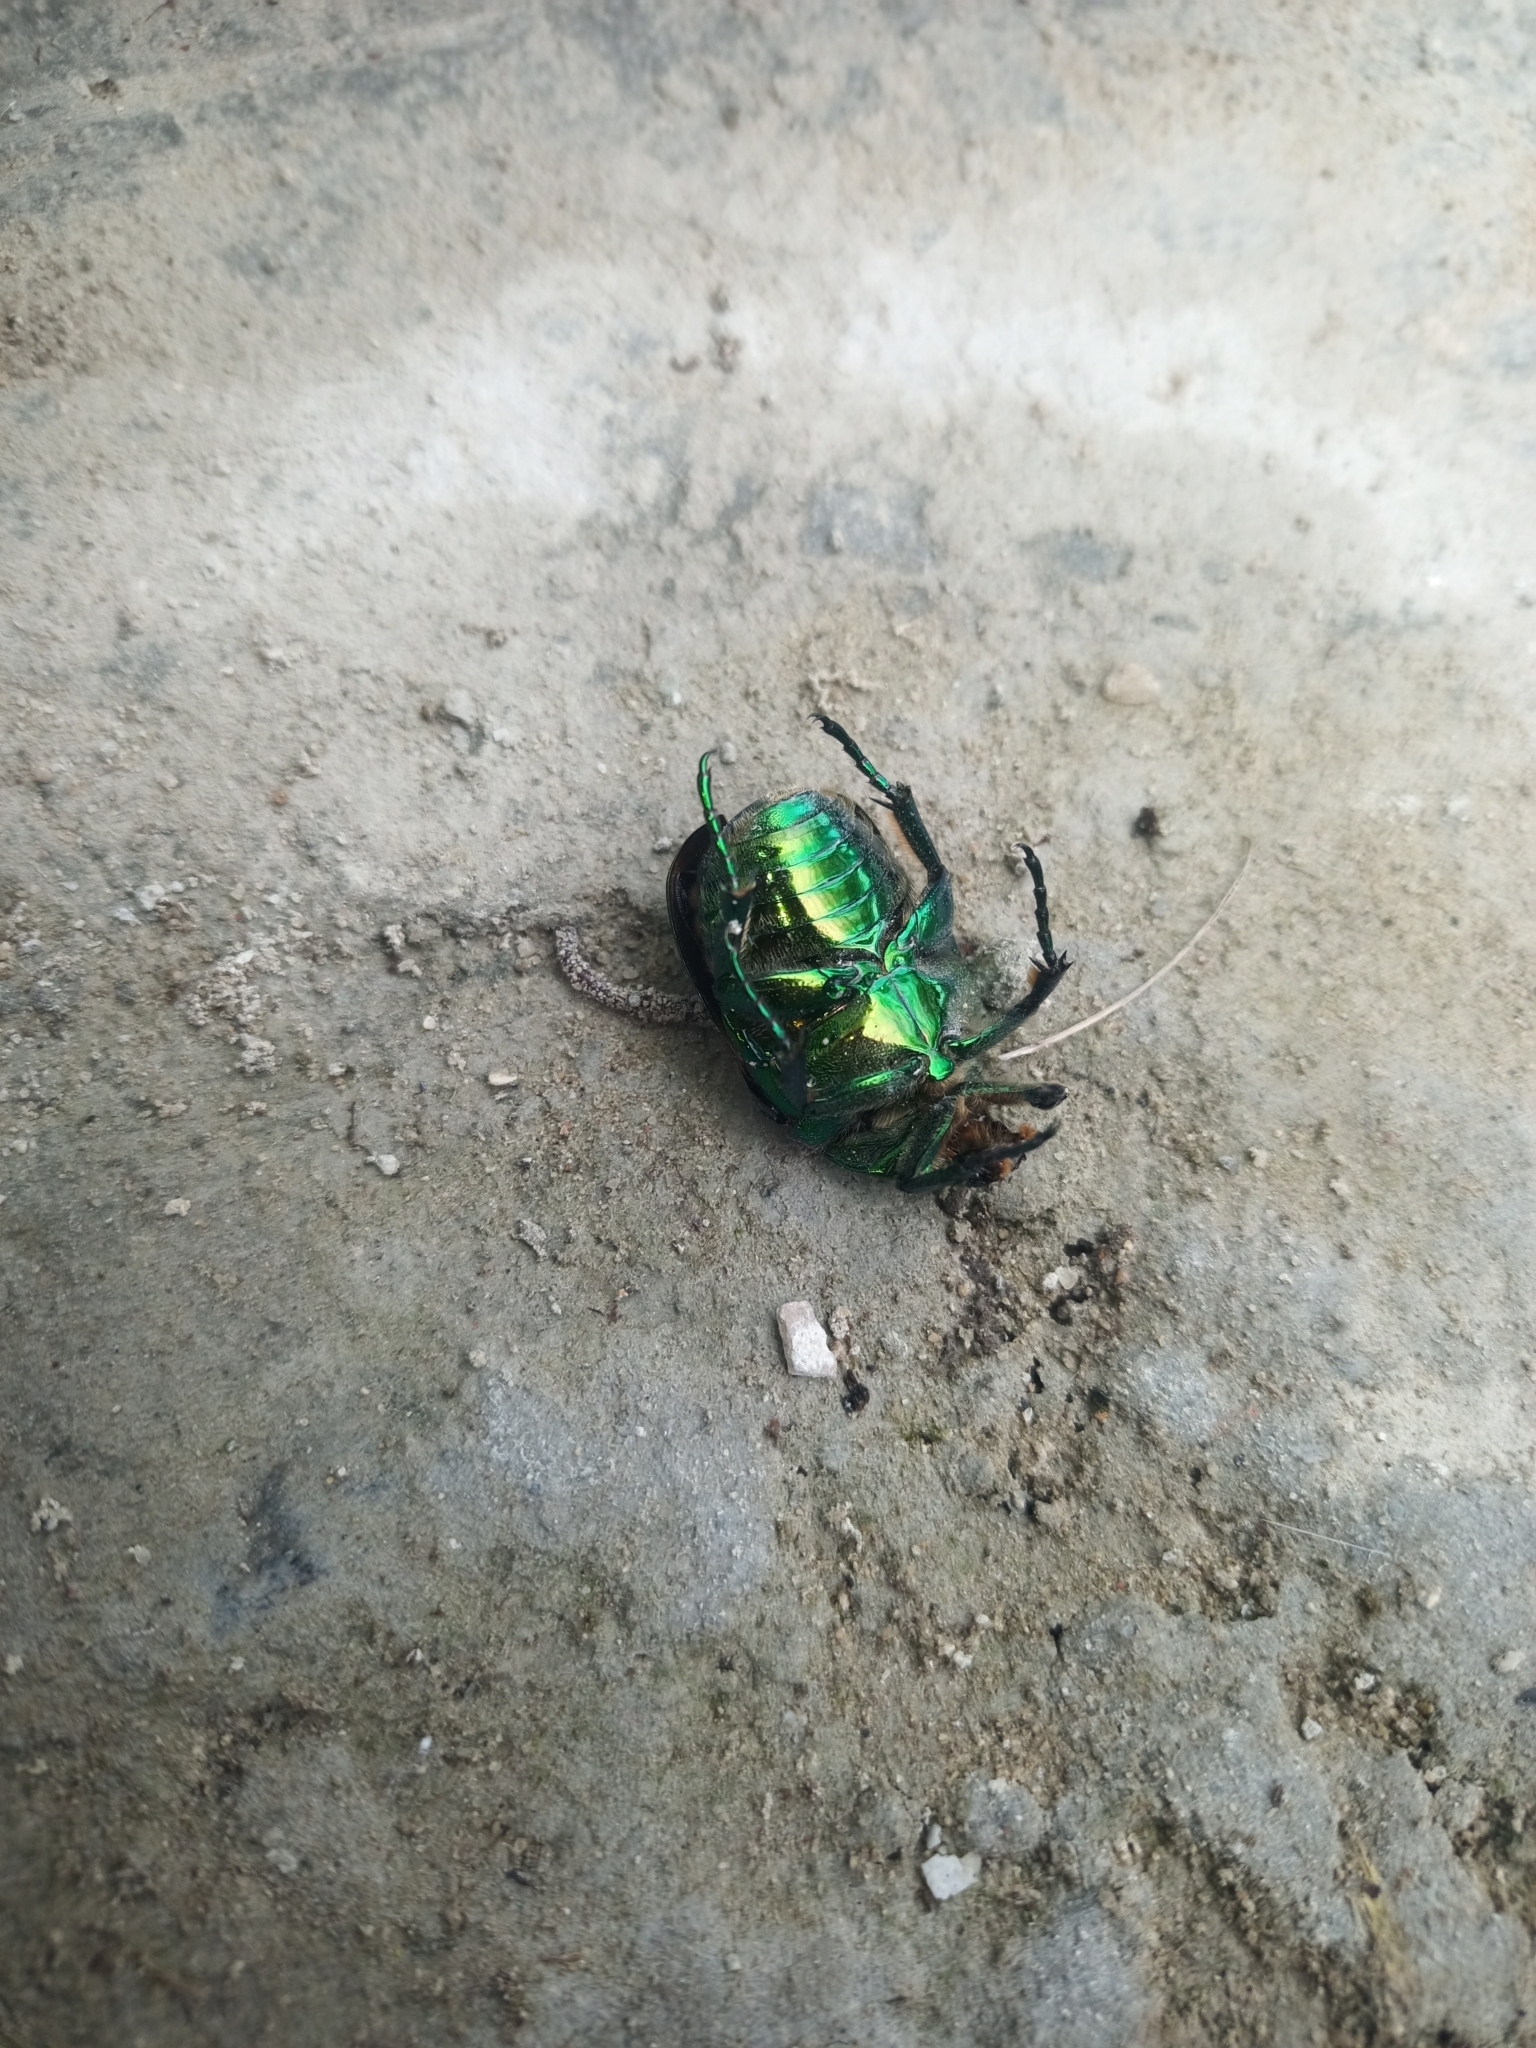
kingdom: Animalia
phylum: Arthropoda
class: Insecta
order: Coleoptera
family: Scarabaeidae
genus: Protaetia
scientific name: Protaetia speciosissima
